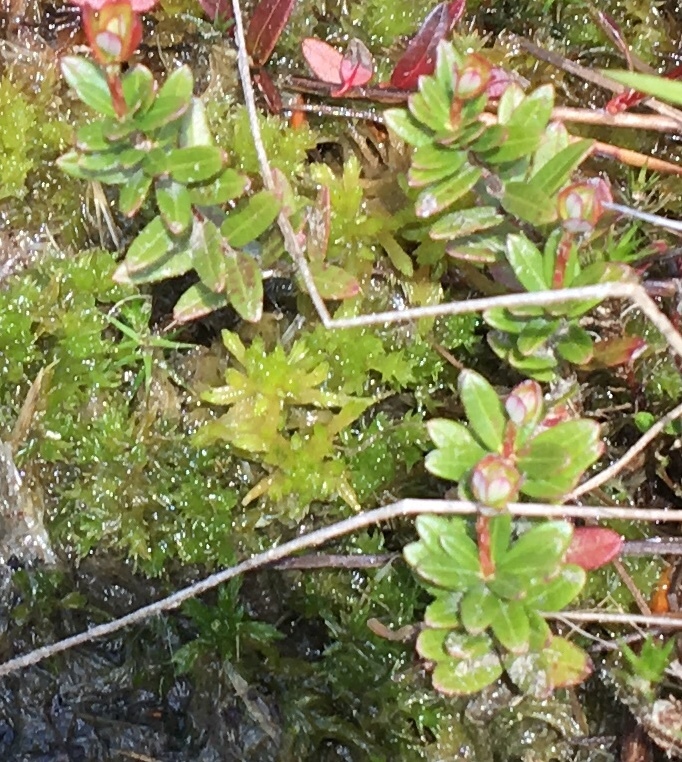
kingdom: Plantae
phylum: Tracheophyta
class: Magnoliopsida
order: Ericales
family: Ericaceae
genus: Vaccinium
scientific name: Vaccinium macrocarpon
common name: American cranberry
